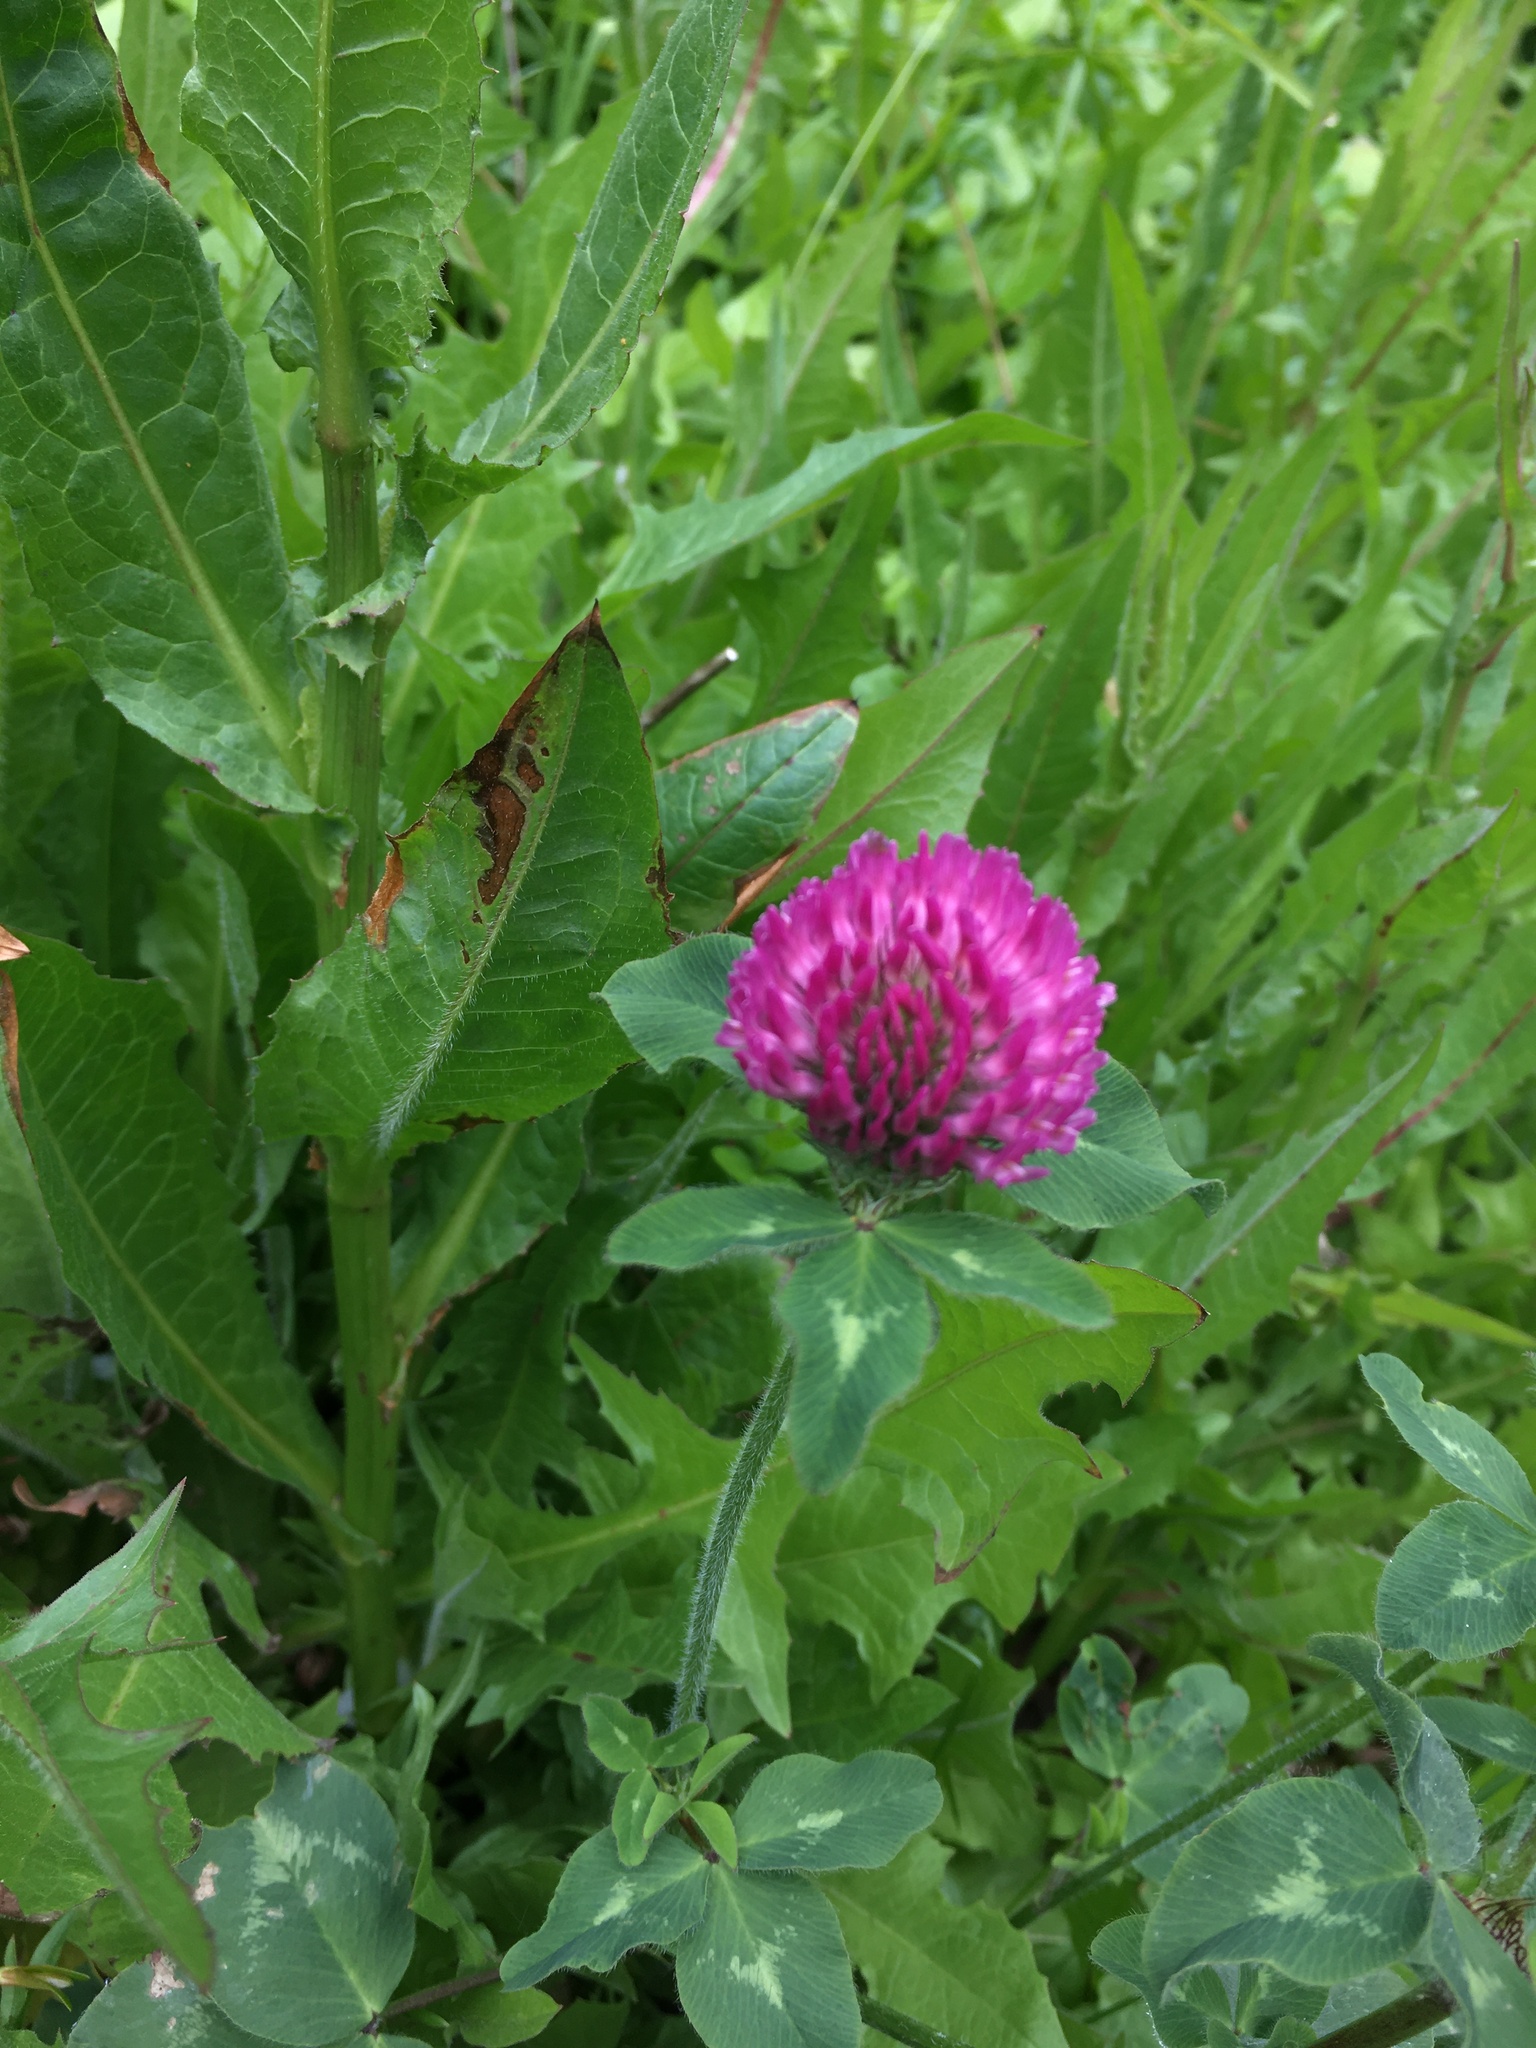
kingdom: Plantae
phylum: Tracheophyta
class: Magnoliopsida
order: Fabales
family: Fabaceae
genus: Trifolium
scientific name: Trifolium pratense
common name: Red clover
